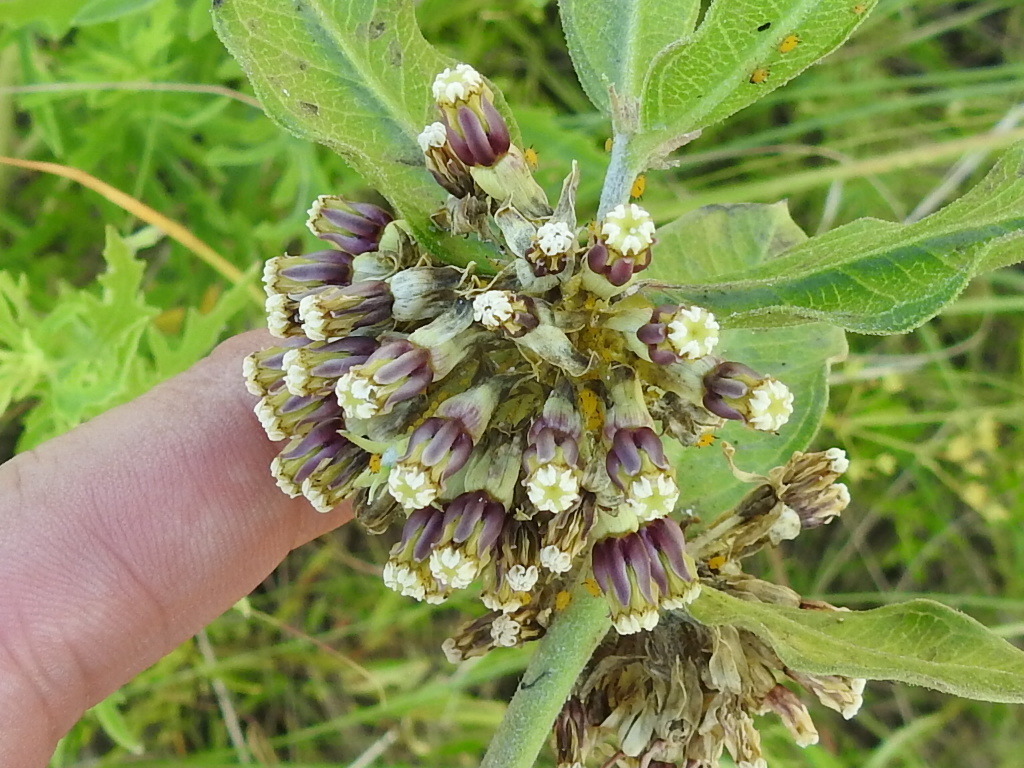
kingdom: Plantae
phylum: Tracheophyta
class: Magnoliopsida
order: Gentianales
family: Apocynaceae
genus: Asclepias
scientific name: Asclepias viridiflora
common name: Green comet milkweed
